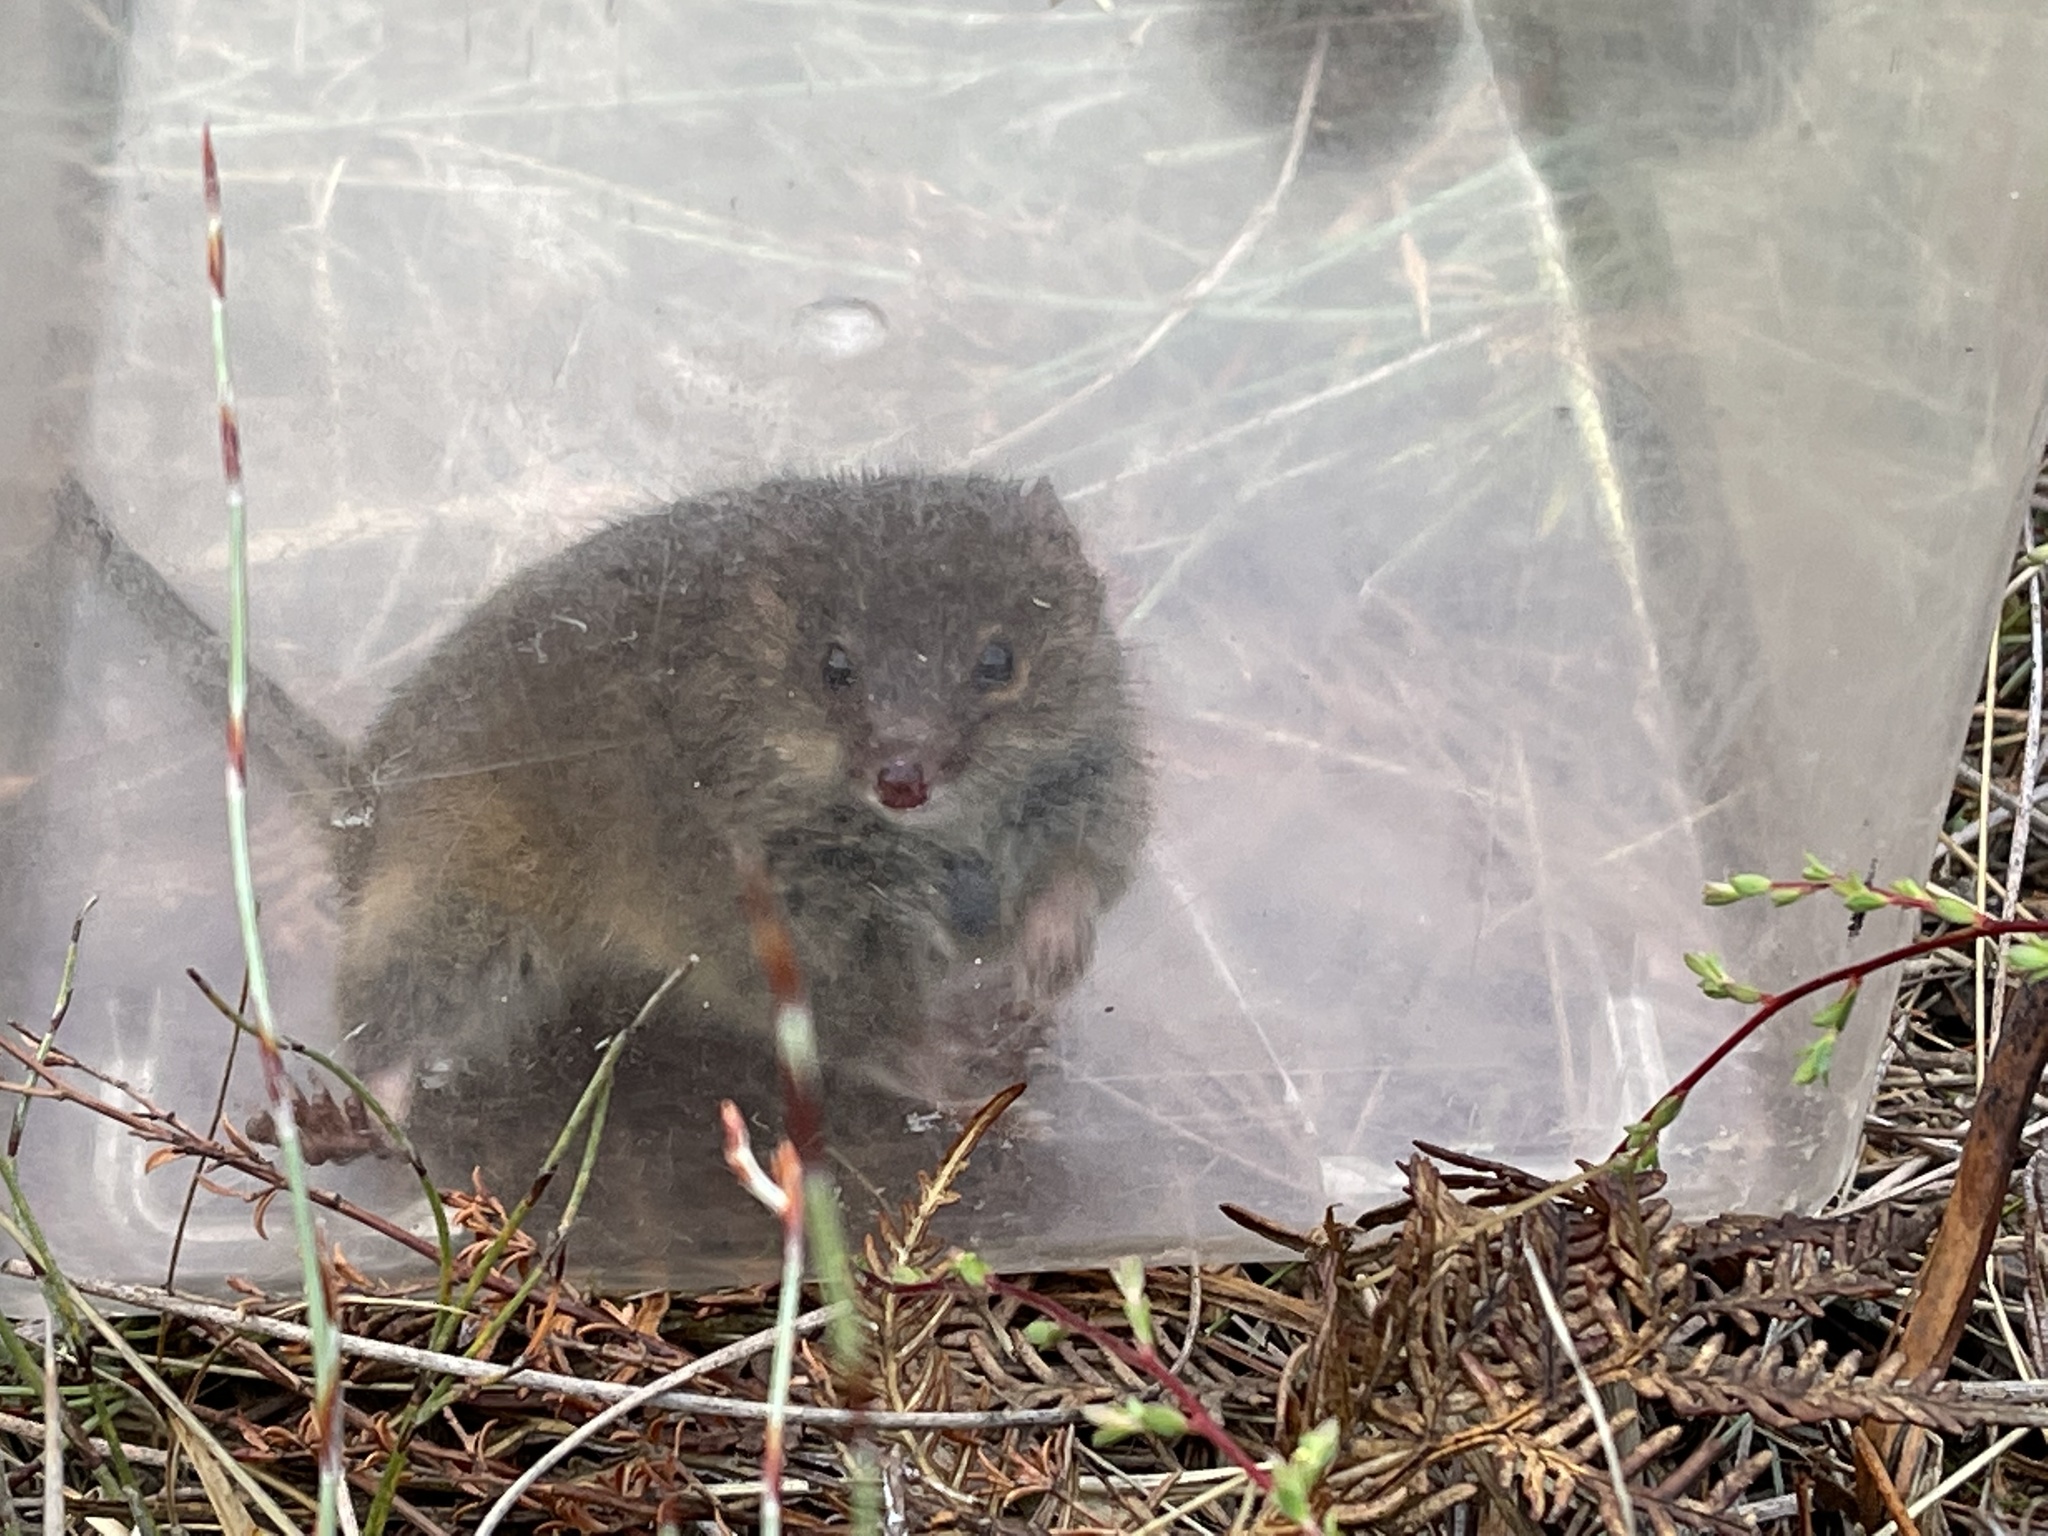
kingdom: Animalia
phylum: Chordata
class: Mammalia
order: Dasyuromorphia
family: Dasyuridae
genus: Antechinus
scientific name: Antechinus minimus
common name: Swamp antechinus
